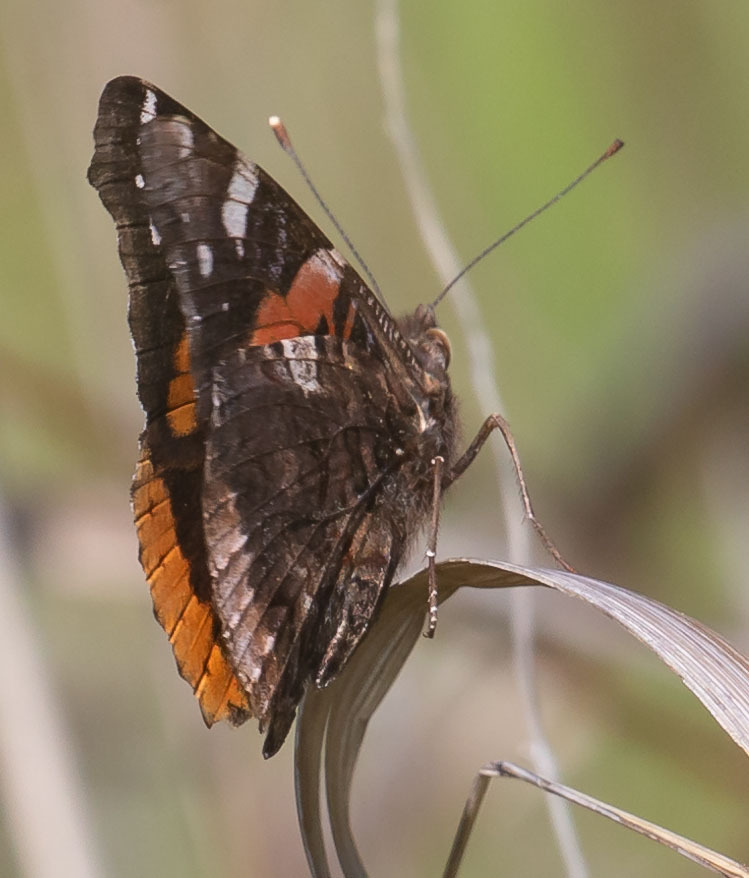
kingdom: Animalia
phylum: Arthropoda
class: Insecta
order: Lepidoptera
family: Nymphalidae
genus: Vanessa
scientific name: Vanessa atalanta
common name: Red admiral
